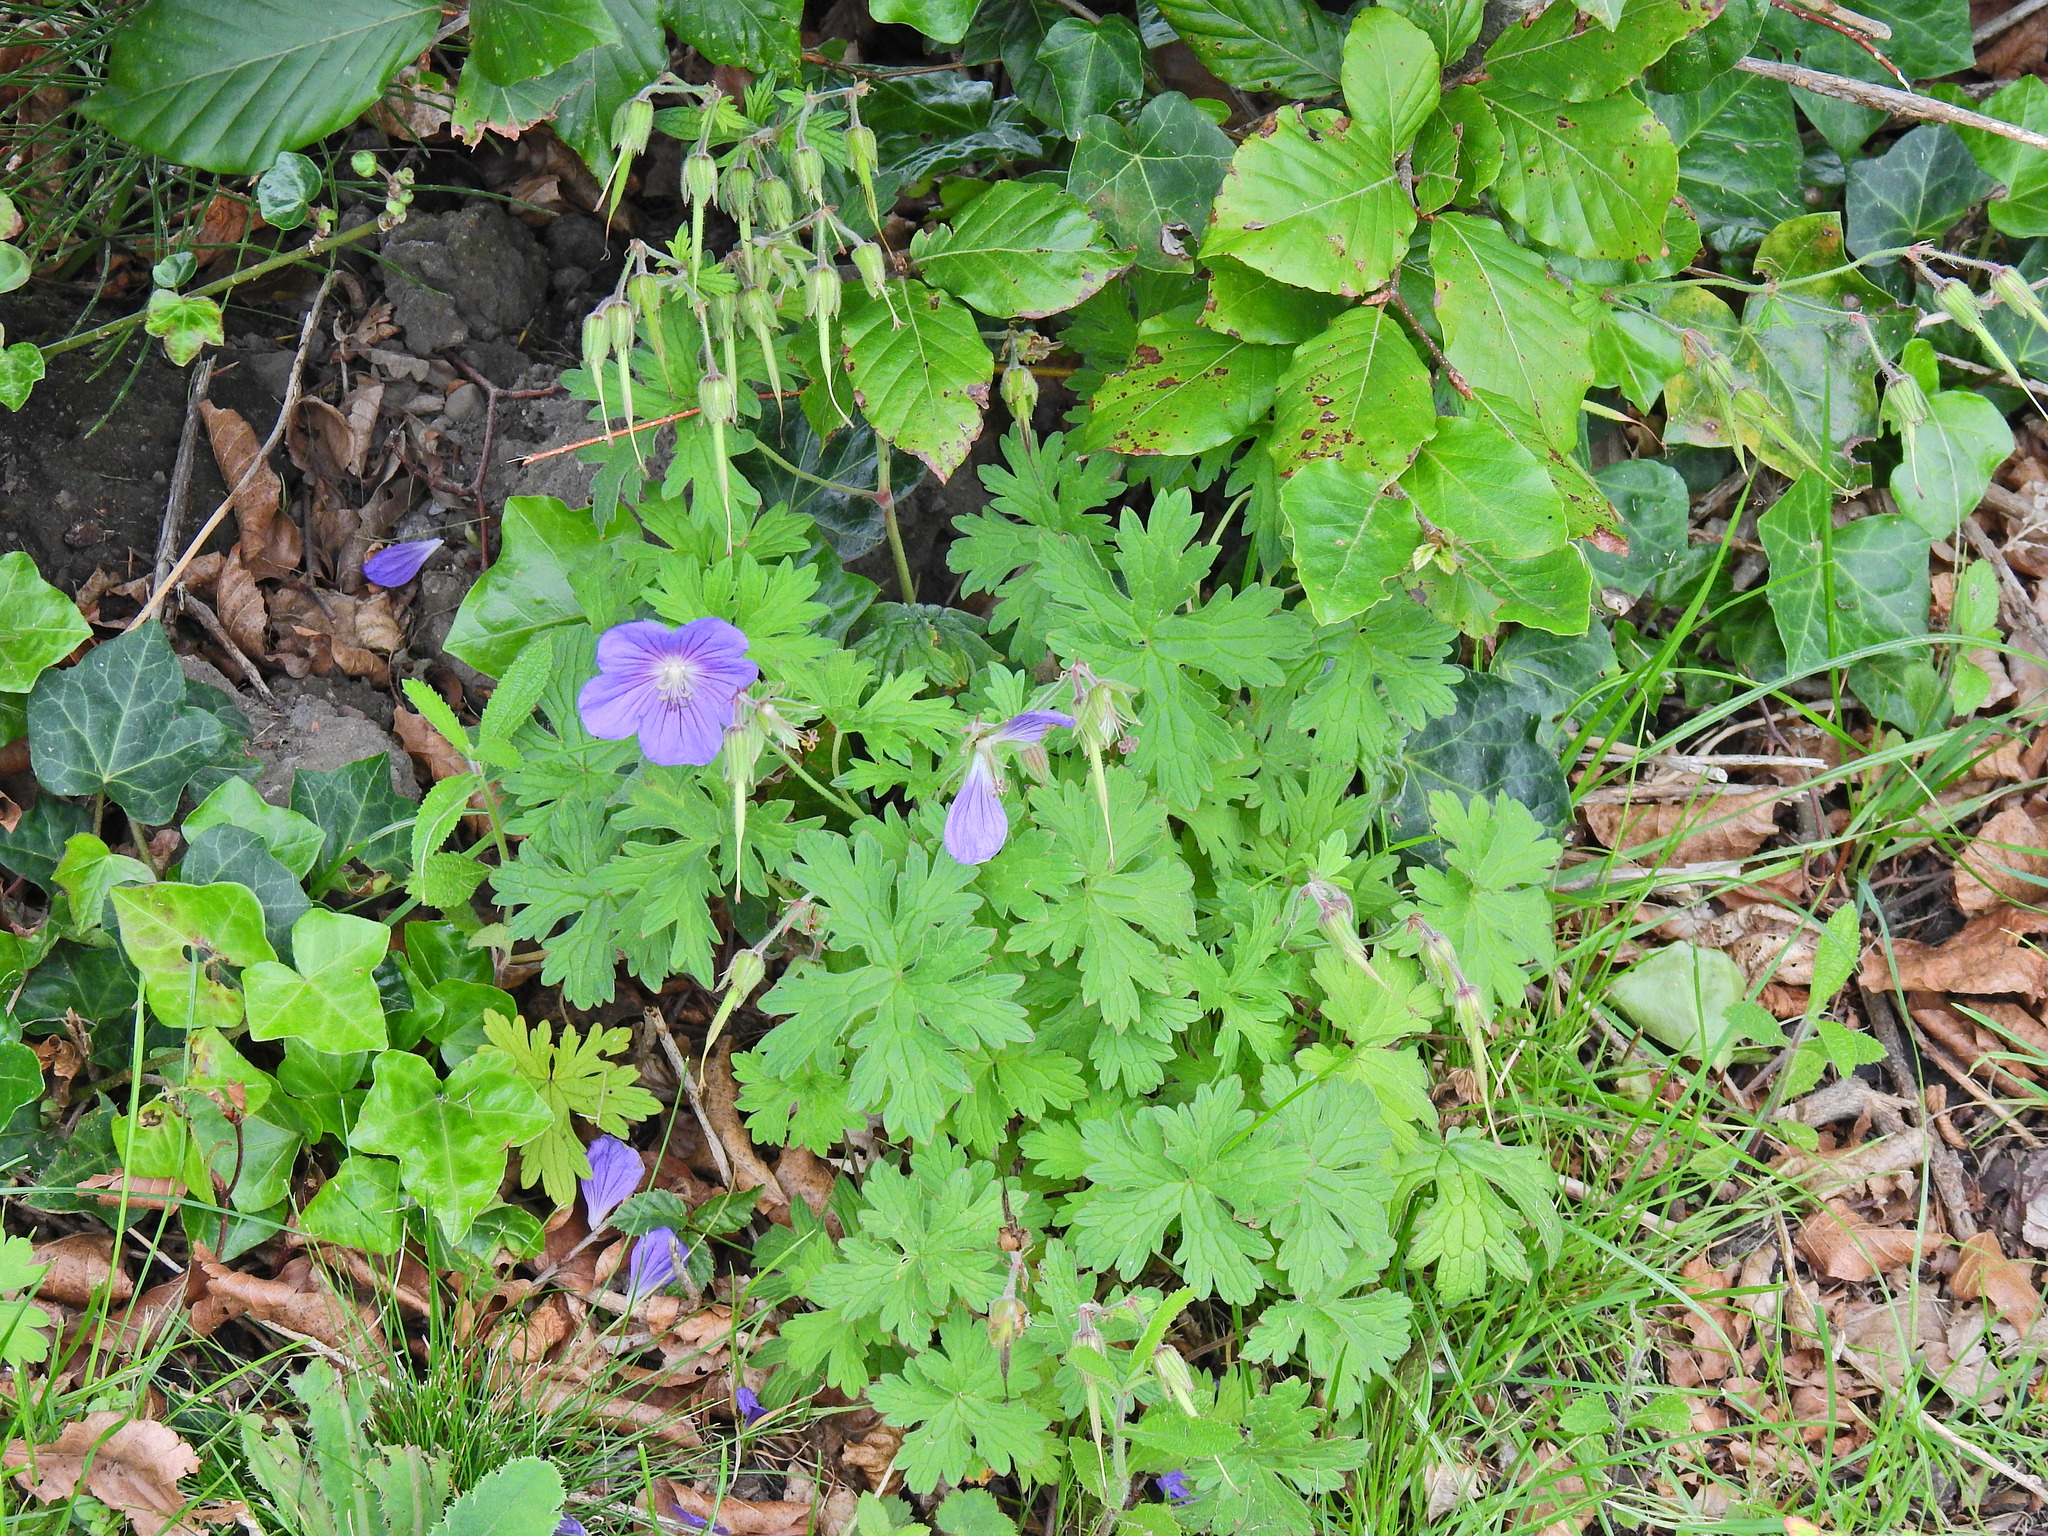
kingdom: Plantae
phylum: Tracheophyta
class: Magnoliopsida
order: Geraniales
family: Geraniaceae
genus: Geranium
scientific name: Geranium pratense
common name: Meadow crane's-bill
